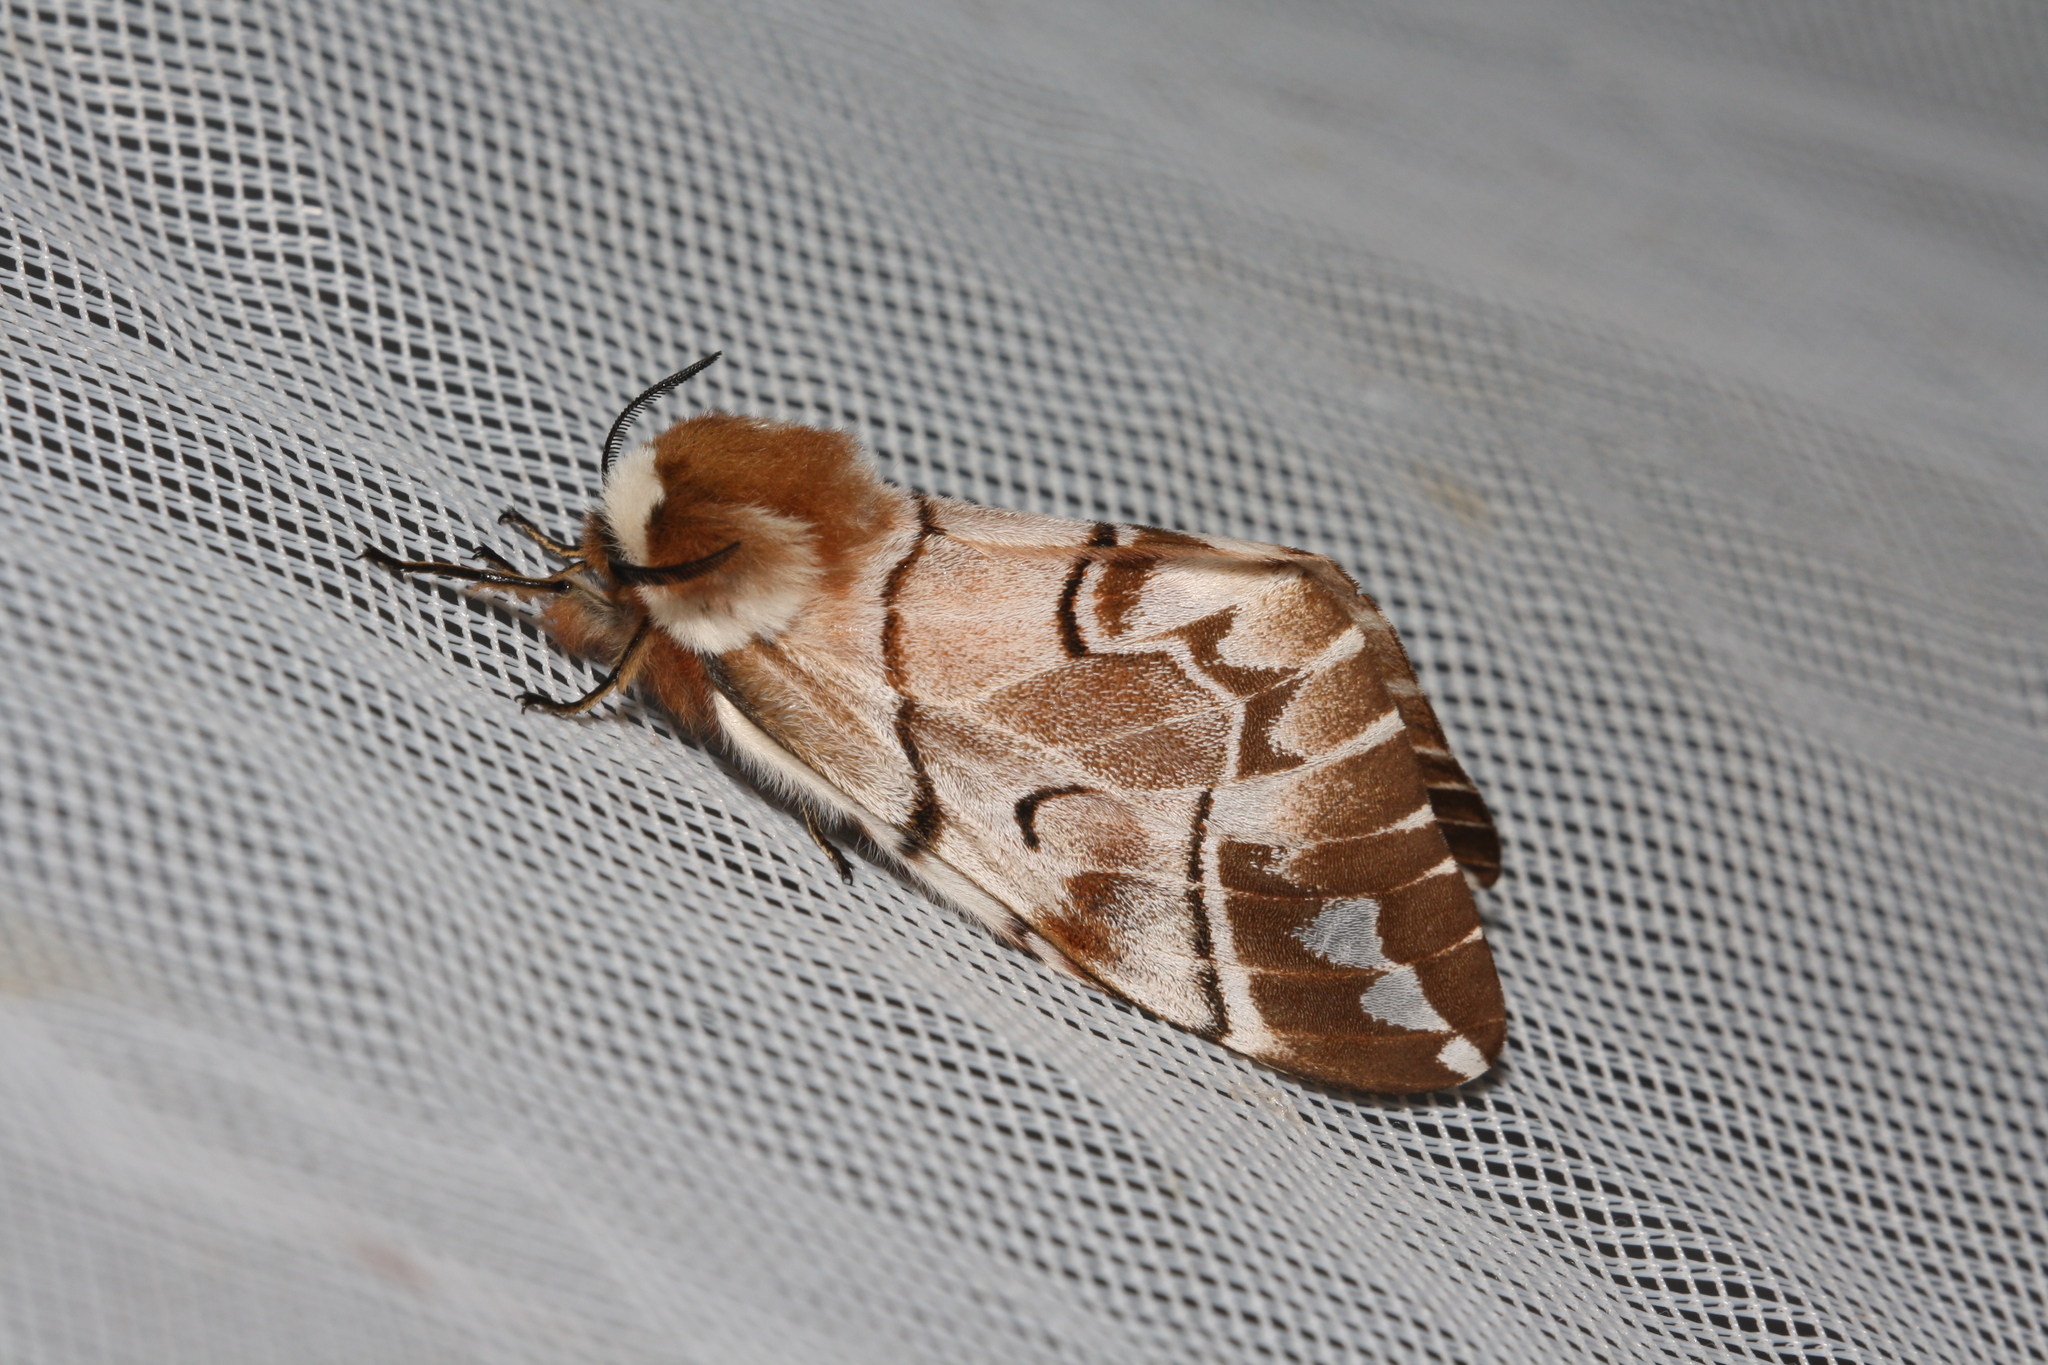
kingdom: Animalia
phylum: Arthropoda
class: Insecta
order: Lepidoptera
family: Endromidae
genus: Endromis
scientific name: Endromis versicolora
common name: Kentish glory
